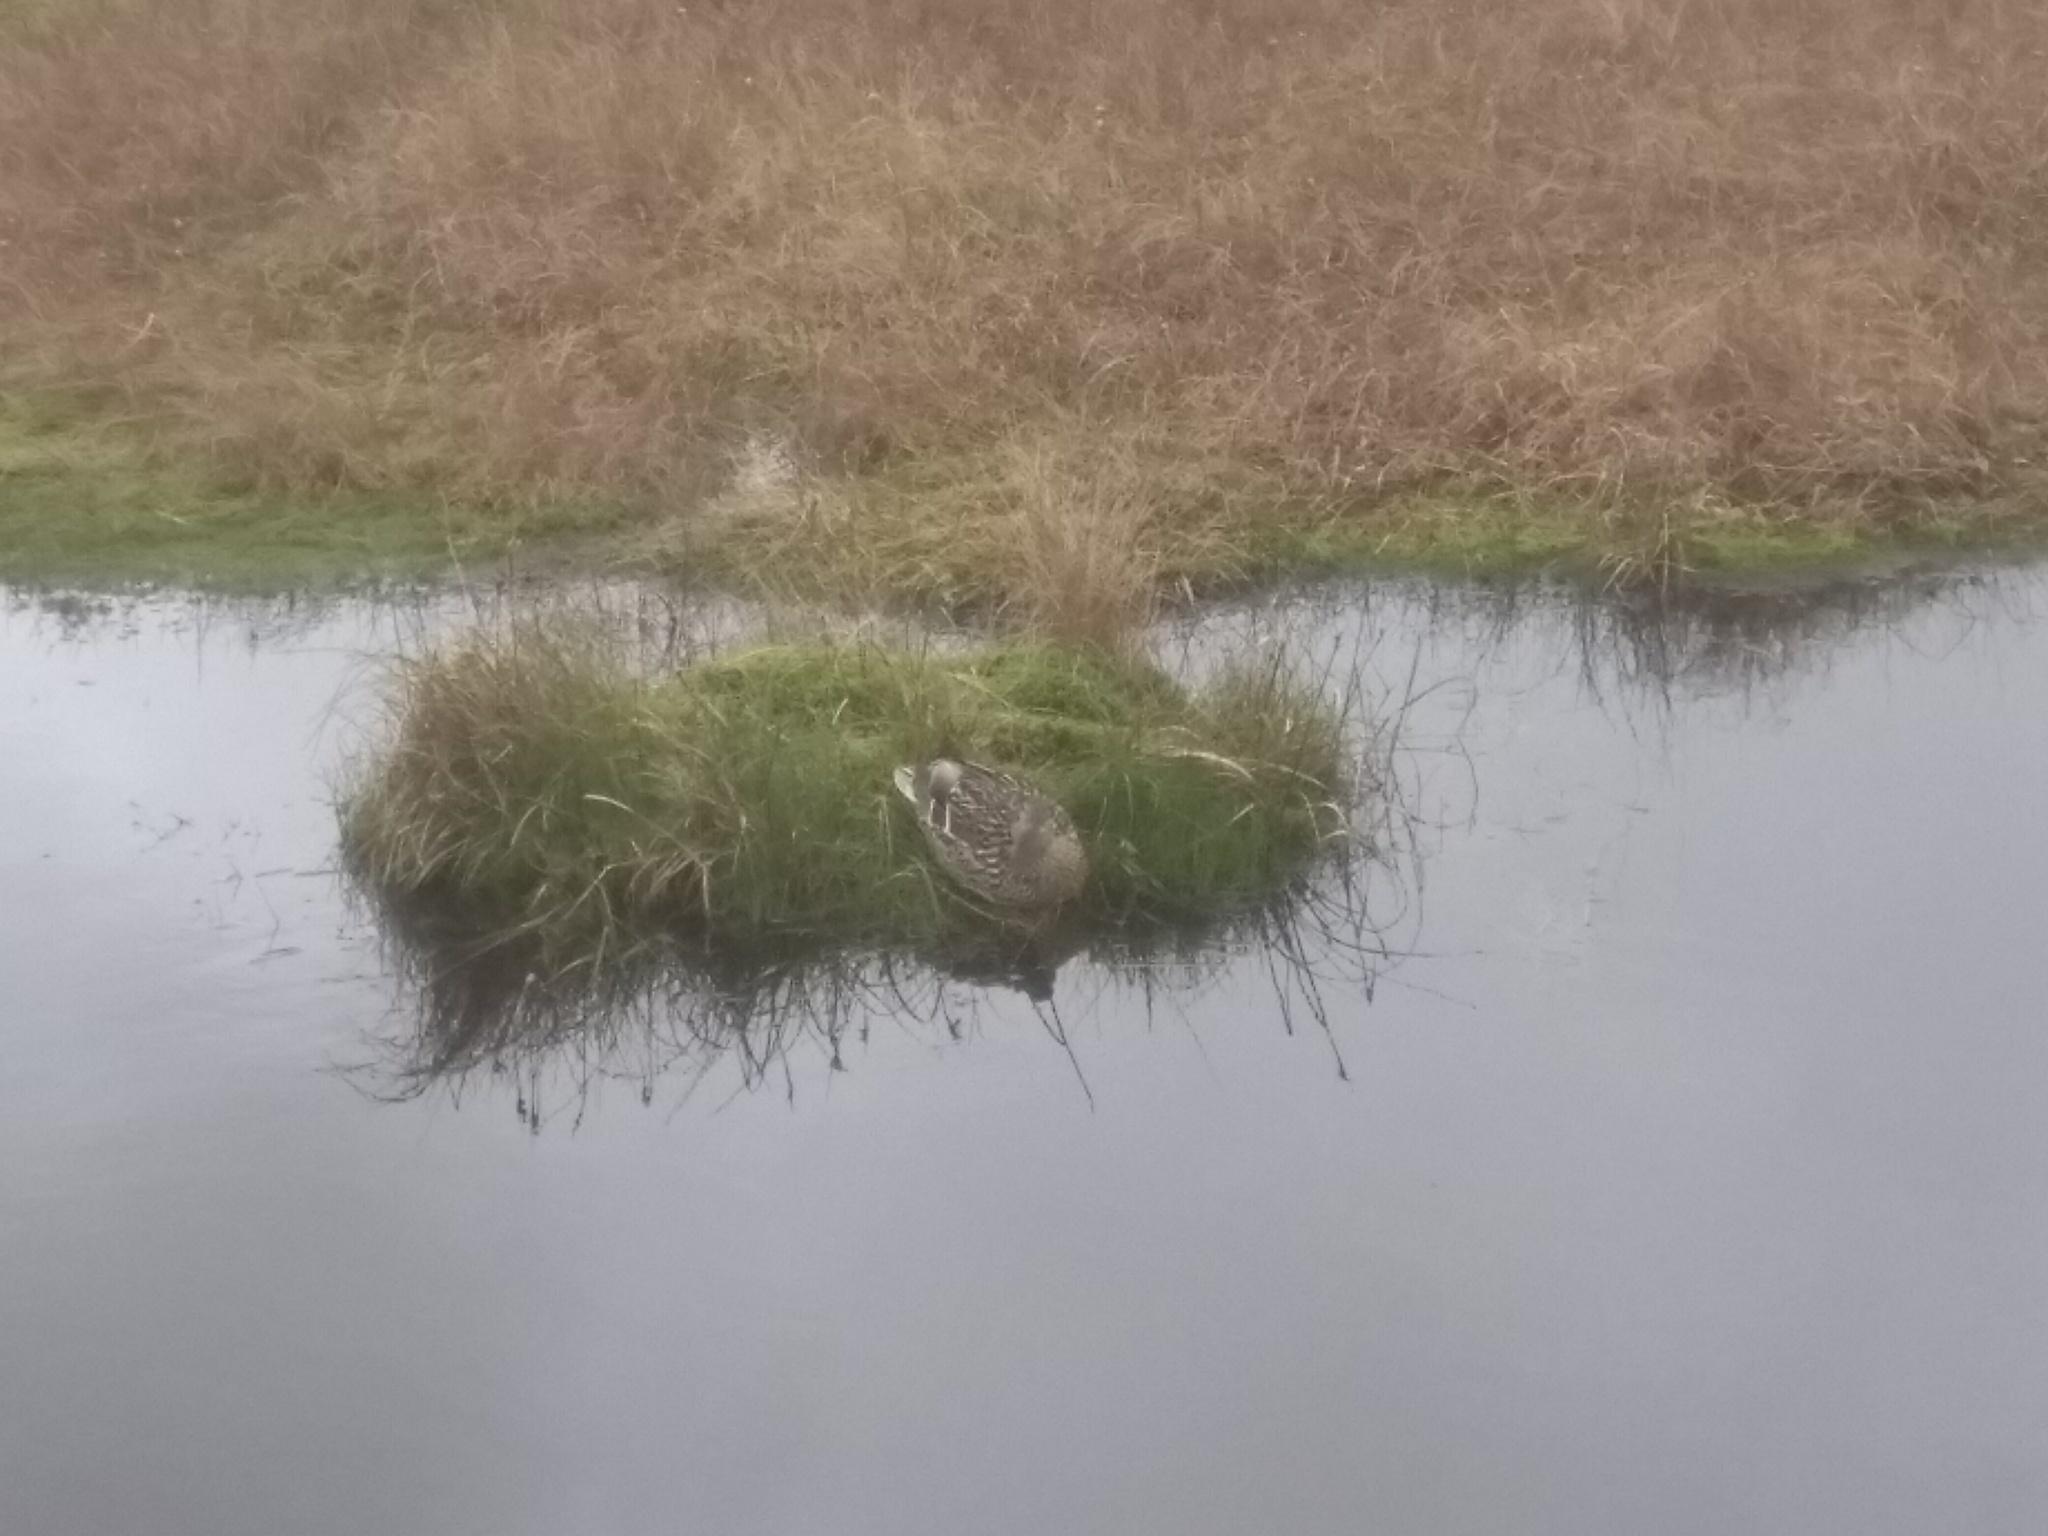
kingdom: Animalia
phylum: Chordata
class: Aves
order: Anseriformes
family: Anatidae
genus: Anas
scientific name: Anas platyrhynchos
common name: Mallard
